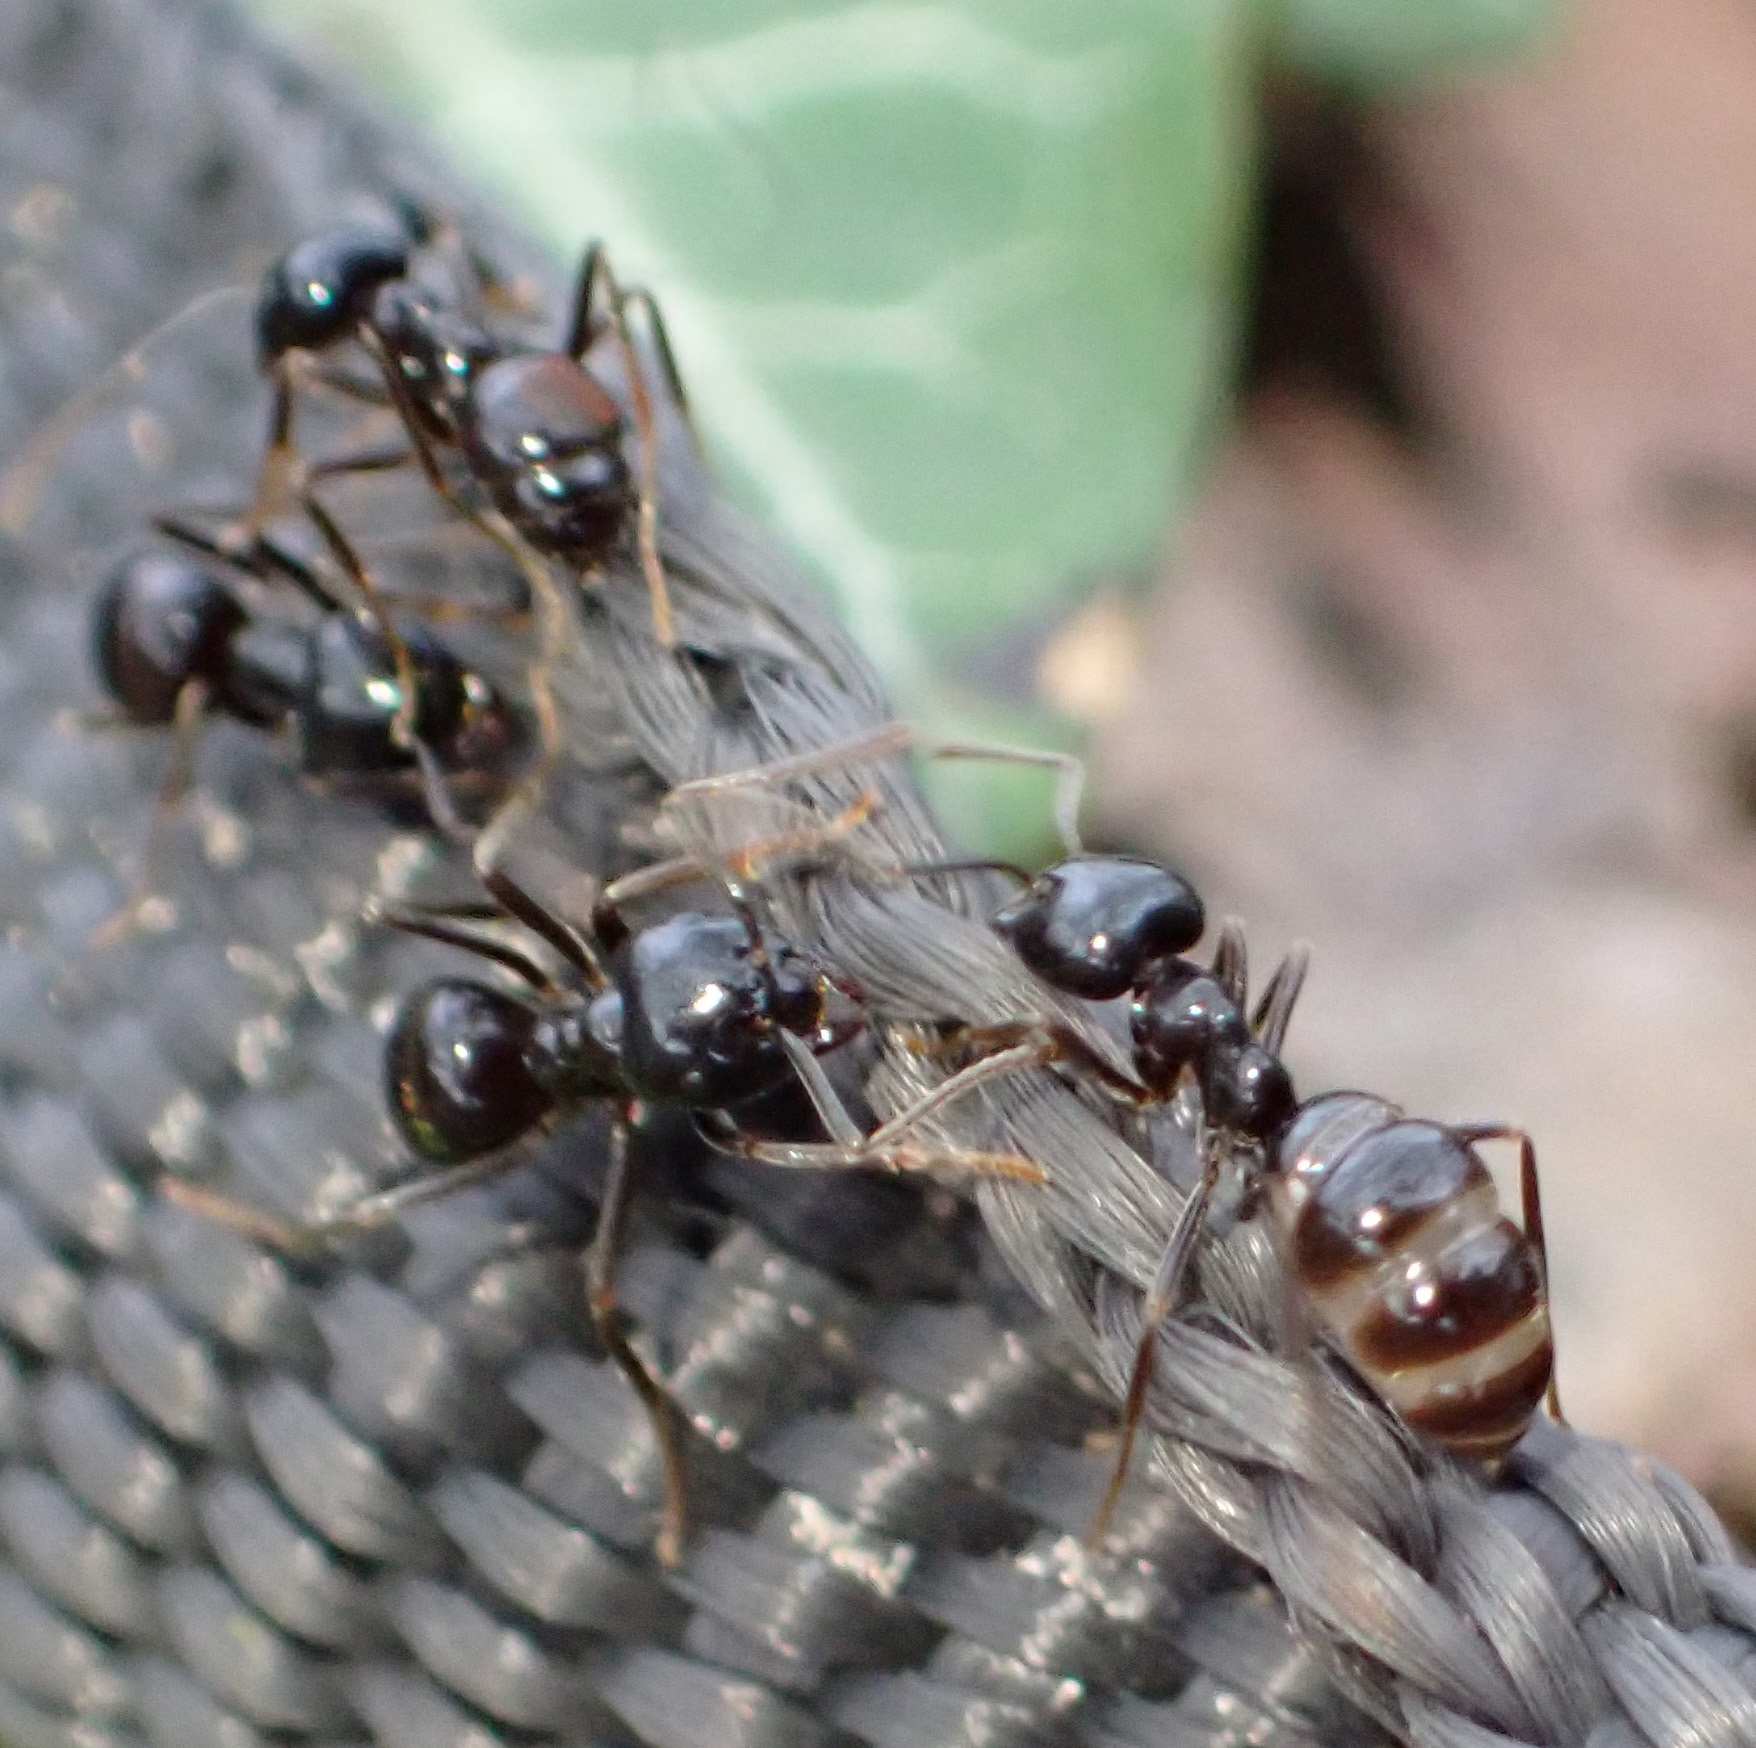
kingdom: Animalia
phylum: Arthropoda
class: Insecta
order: Hymenoptera
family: Formicidae
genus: Lasius
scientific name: Lasius fuliginosus
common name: Jet ant
